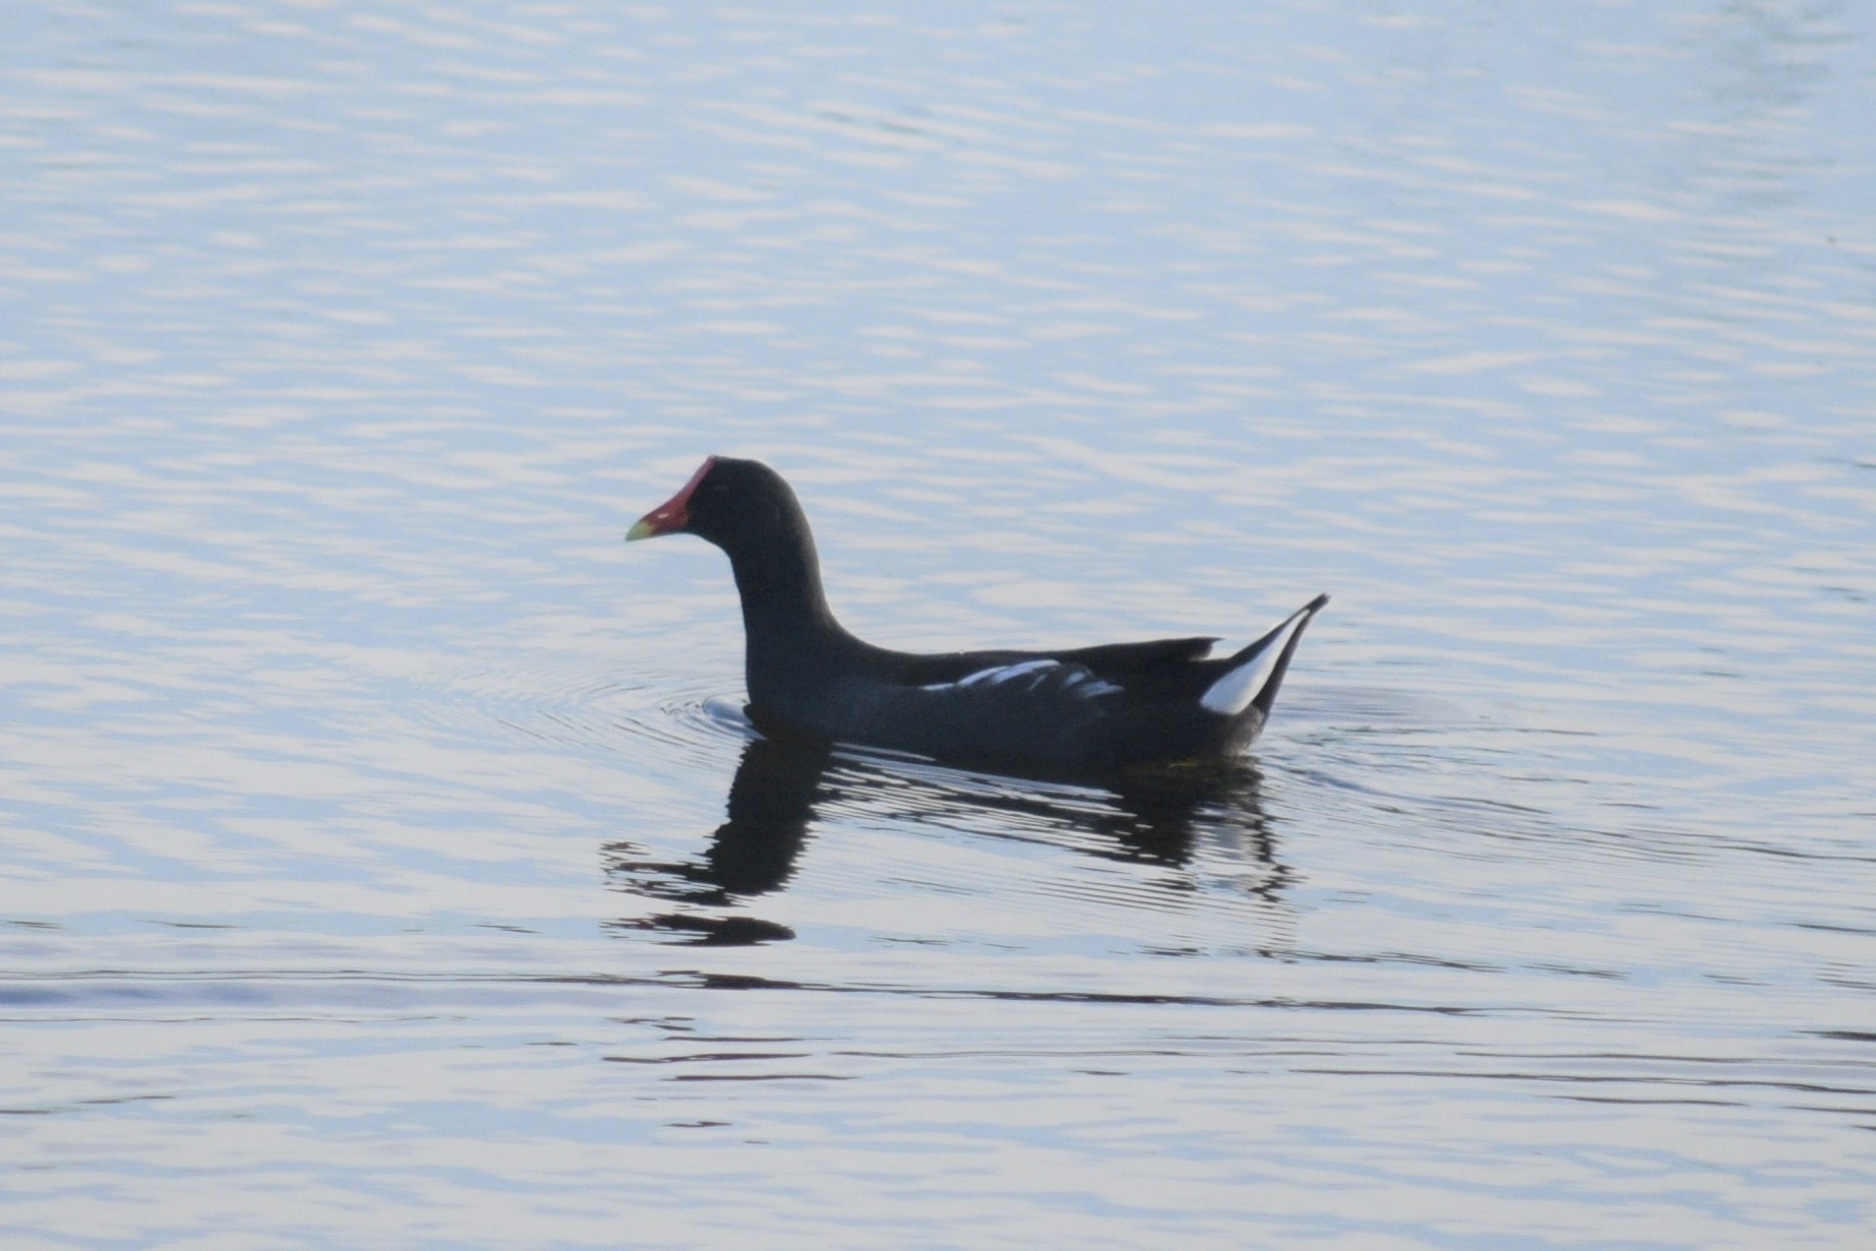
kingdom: Animalia
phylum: Chordata
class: Aves
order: Gruiformes
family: Rallidae
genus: Gallinula
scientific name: Gallinula chloropus
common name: Common moorhen
